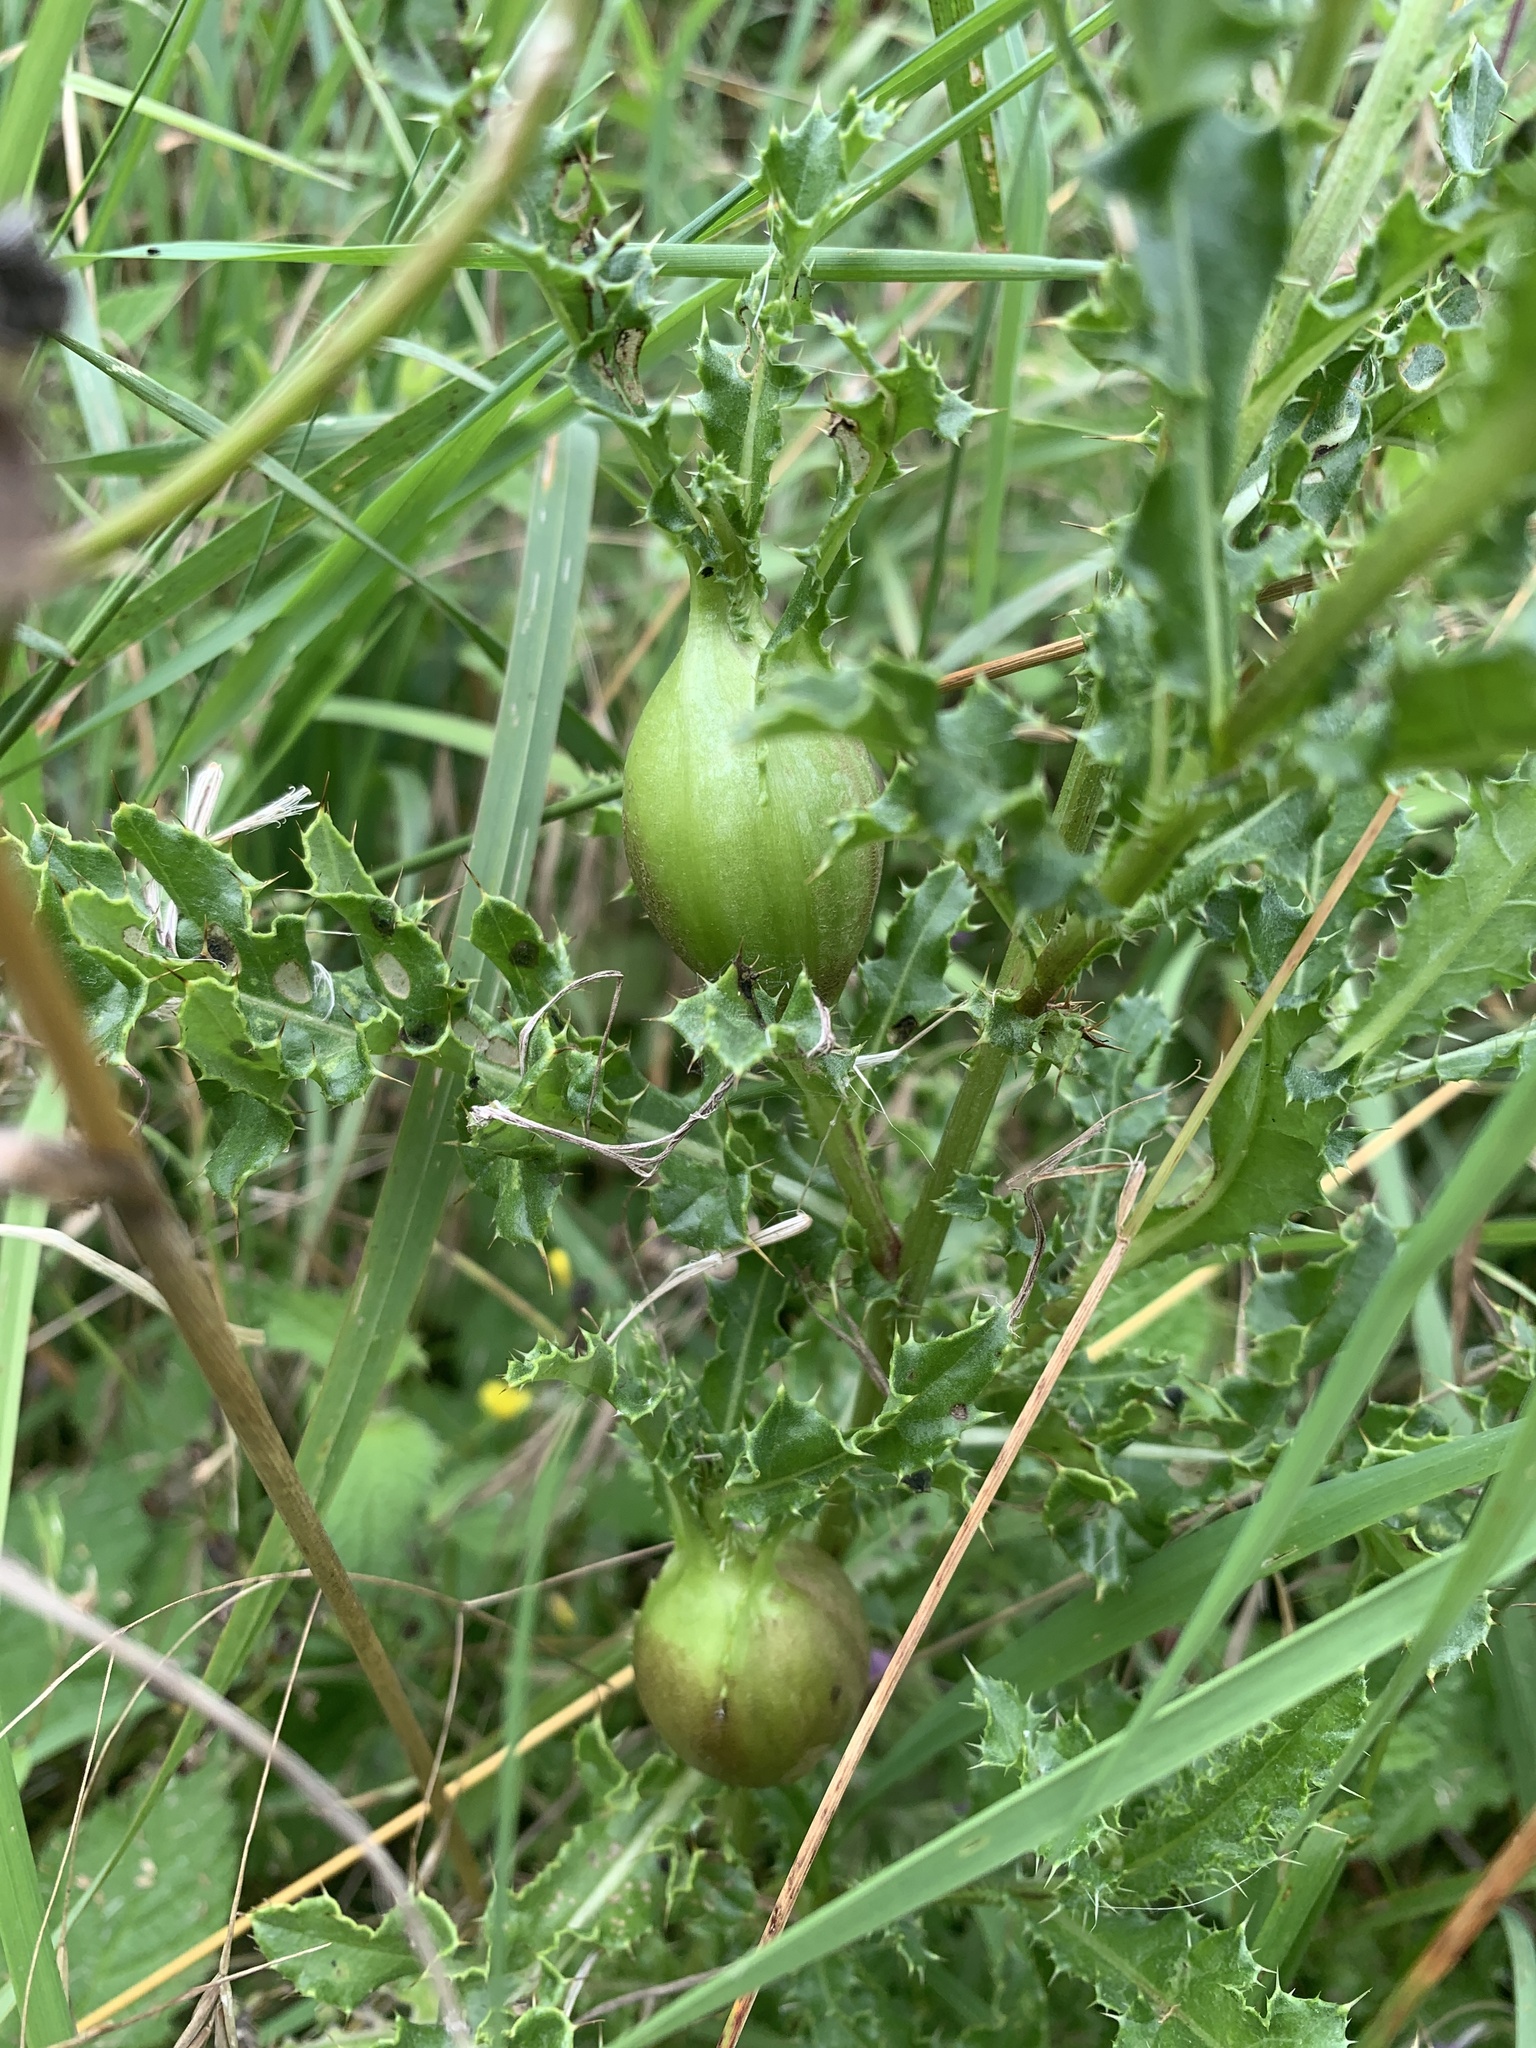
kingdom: Animalia
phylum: Arthropoda
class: Insecta
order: Diptera
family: Tephritidae
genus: Urophora
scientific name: Urophora cardui
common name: Fruit fly
